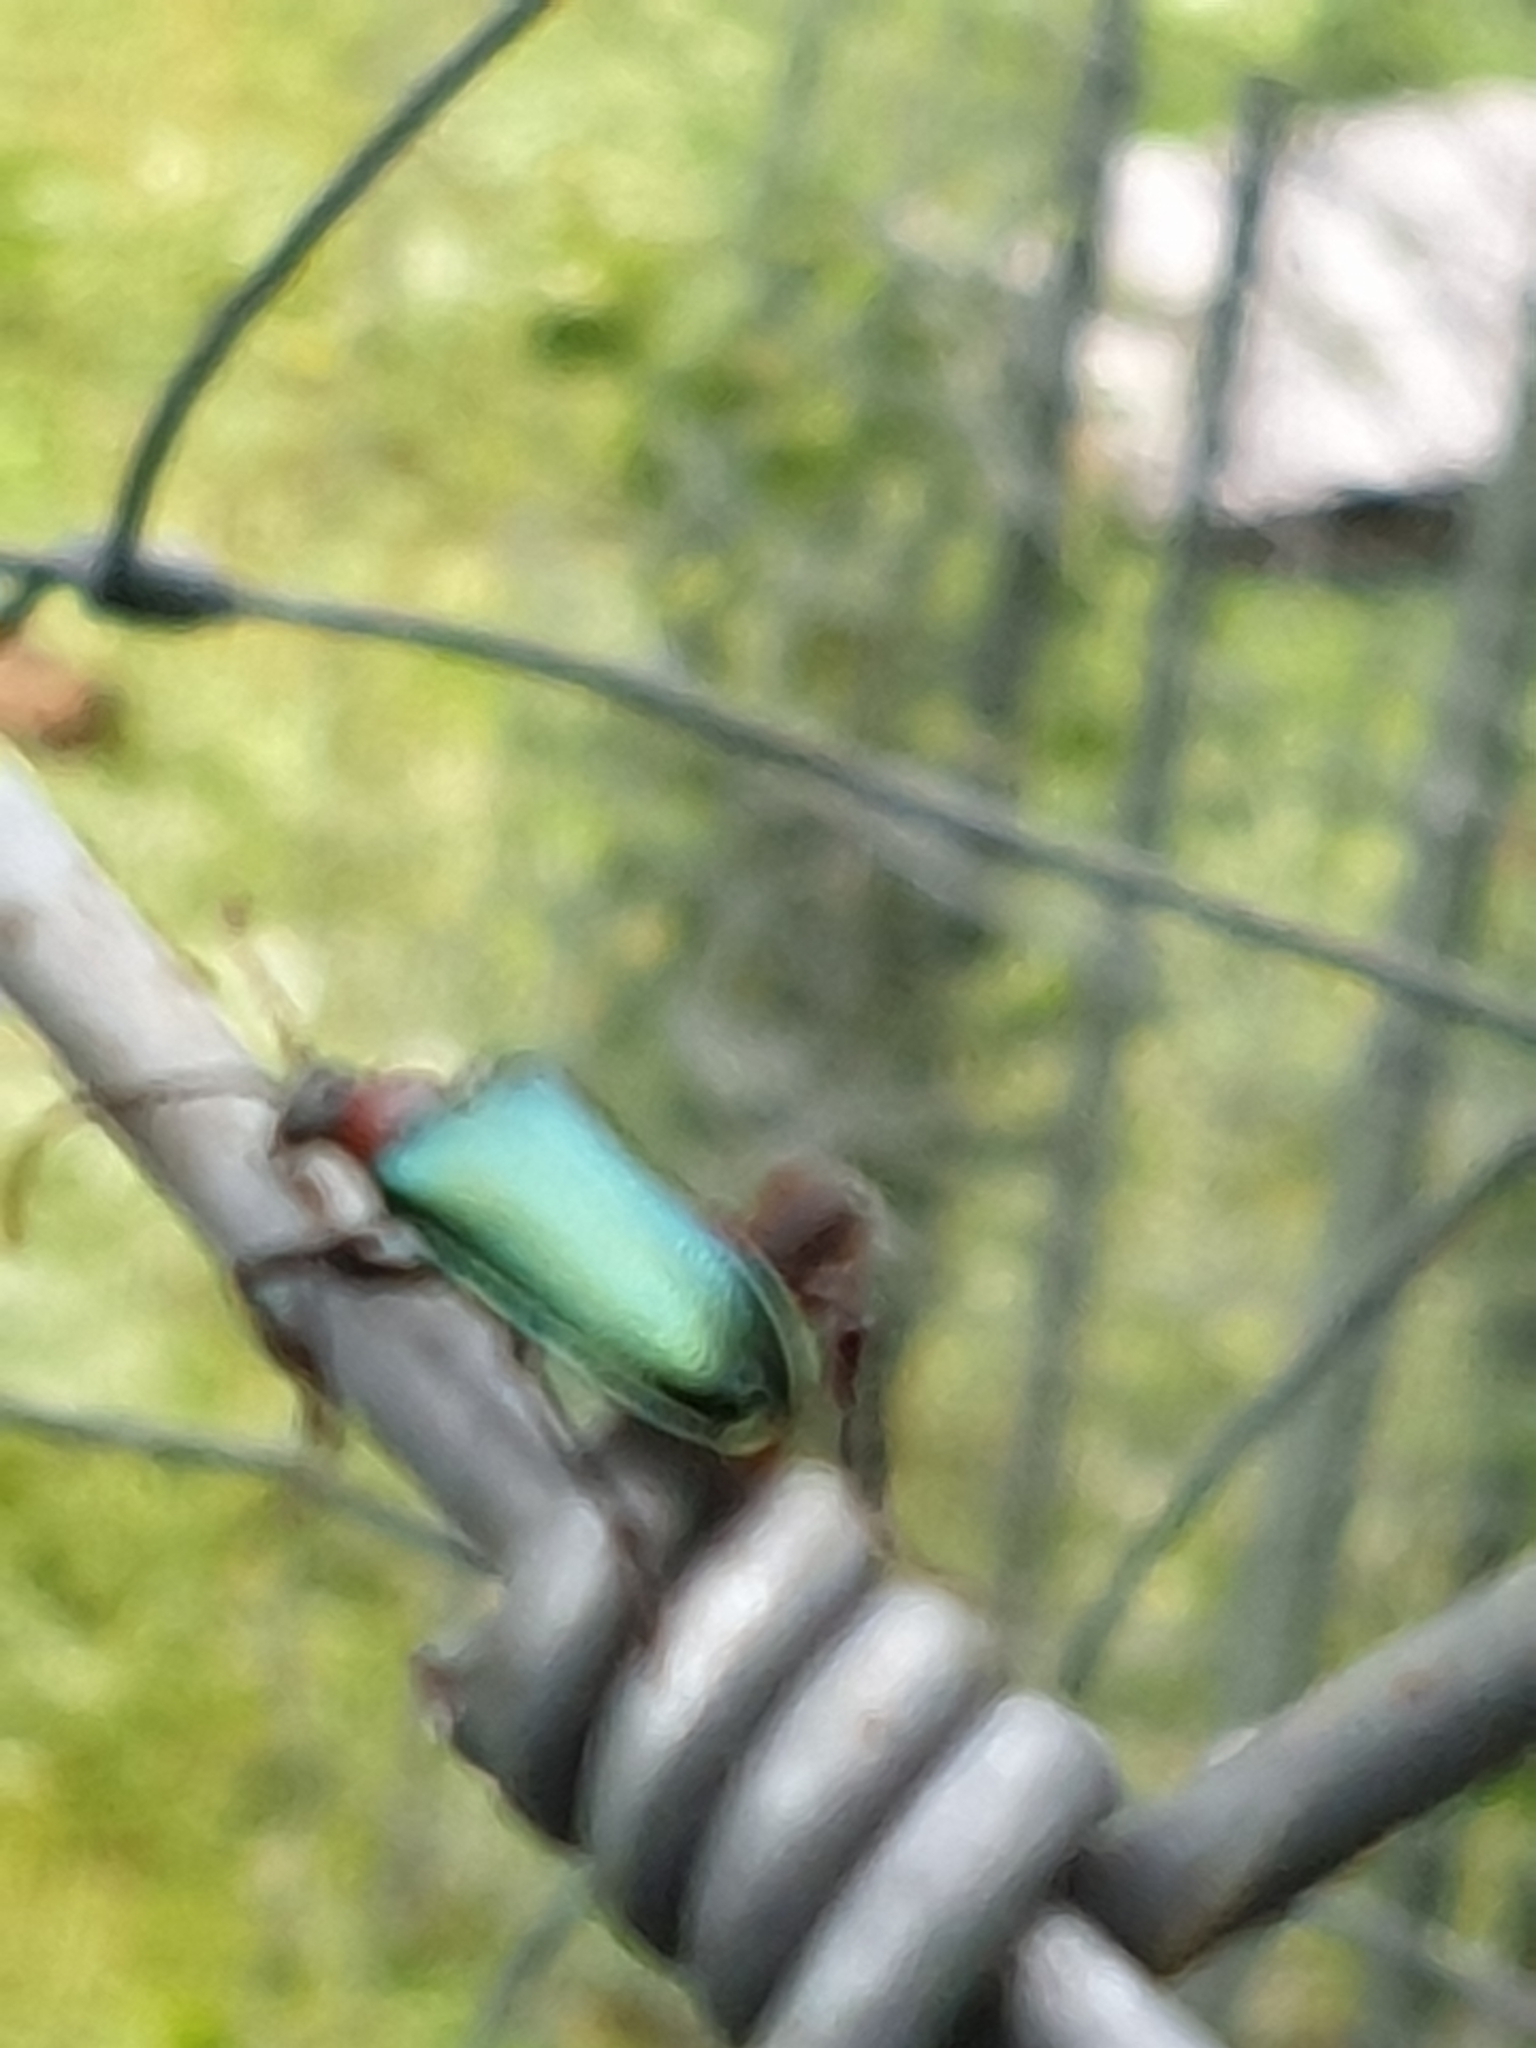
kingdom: Animalia
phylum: Arthropoda
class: Insecta
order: Coleoptera
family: Cerambycidae
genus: Gaurotes
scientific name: Gaurotes virginea
